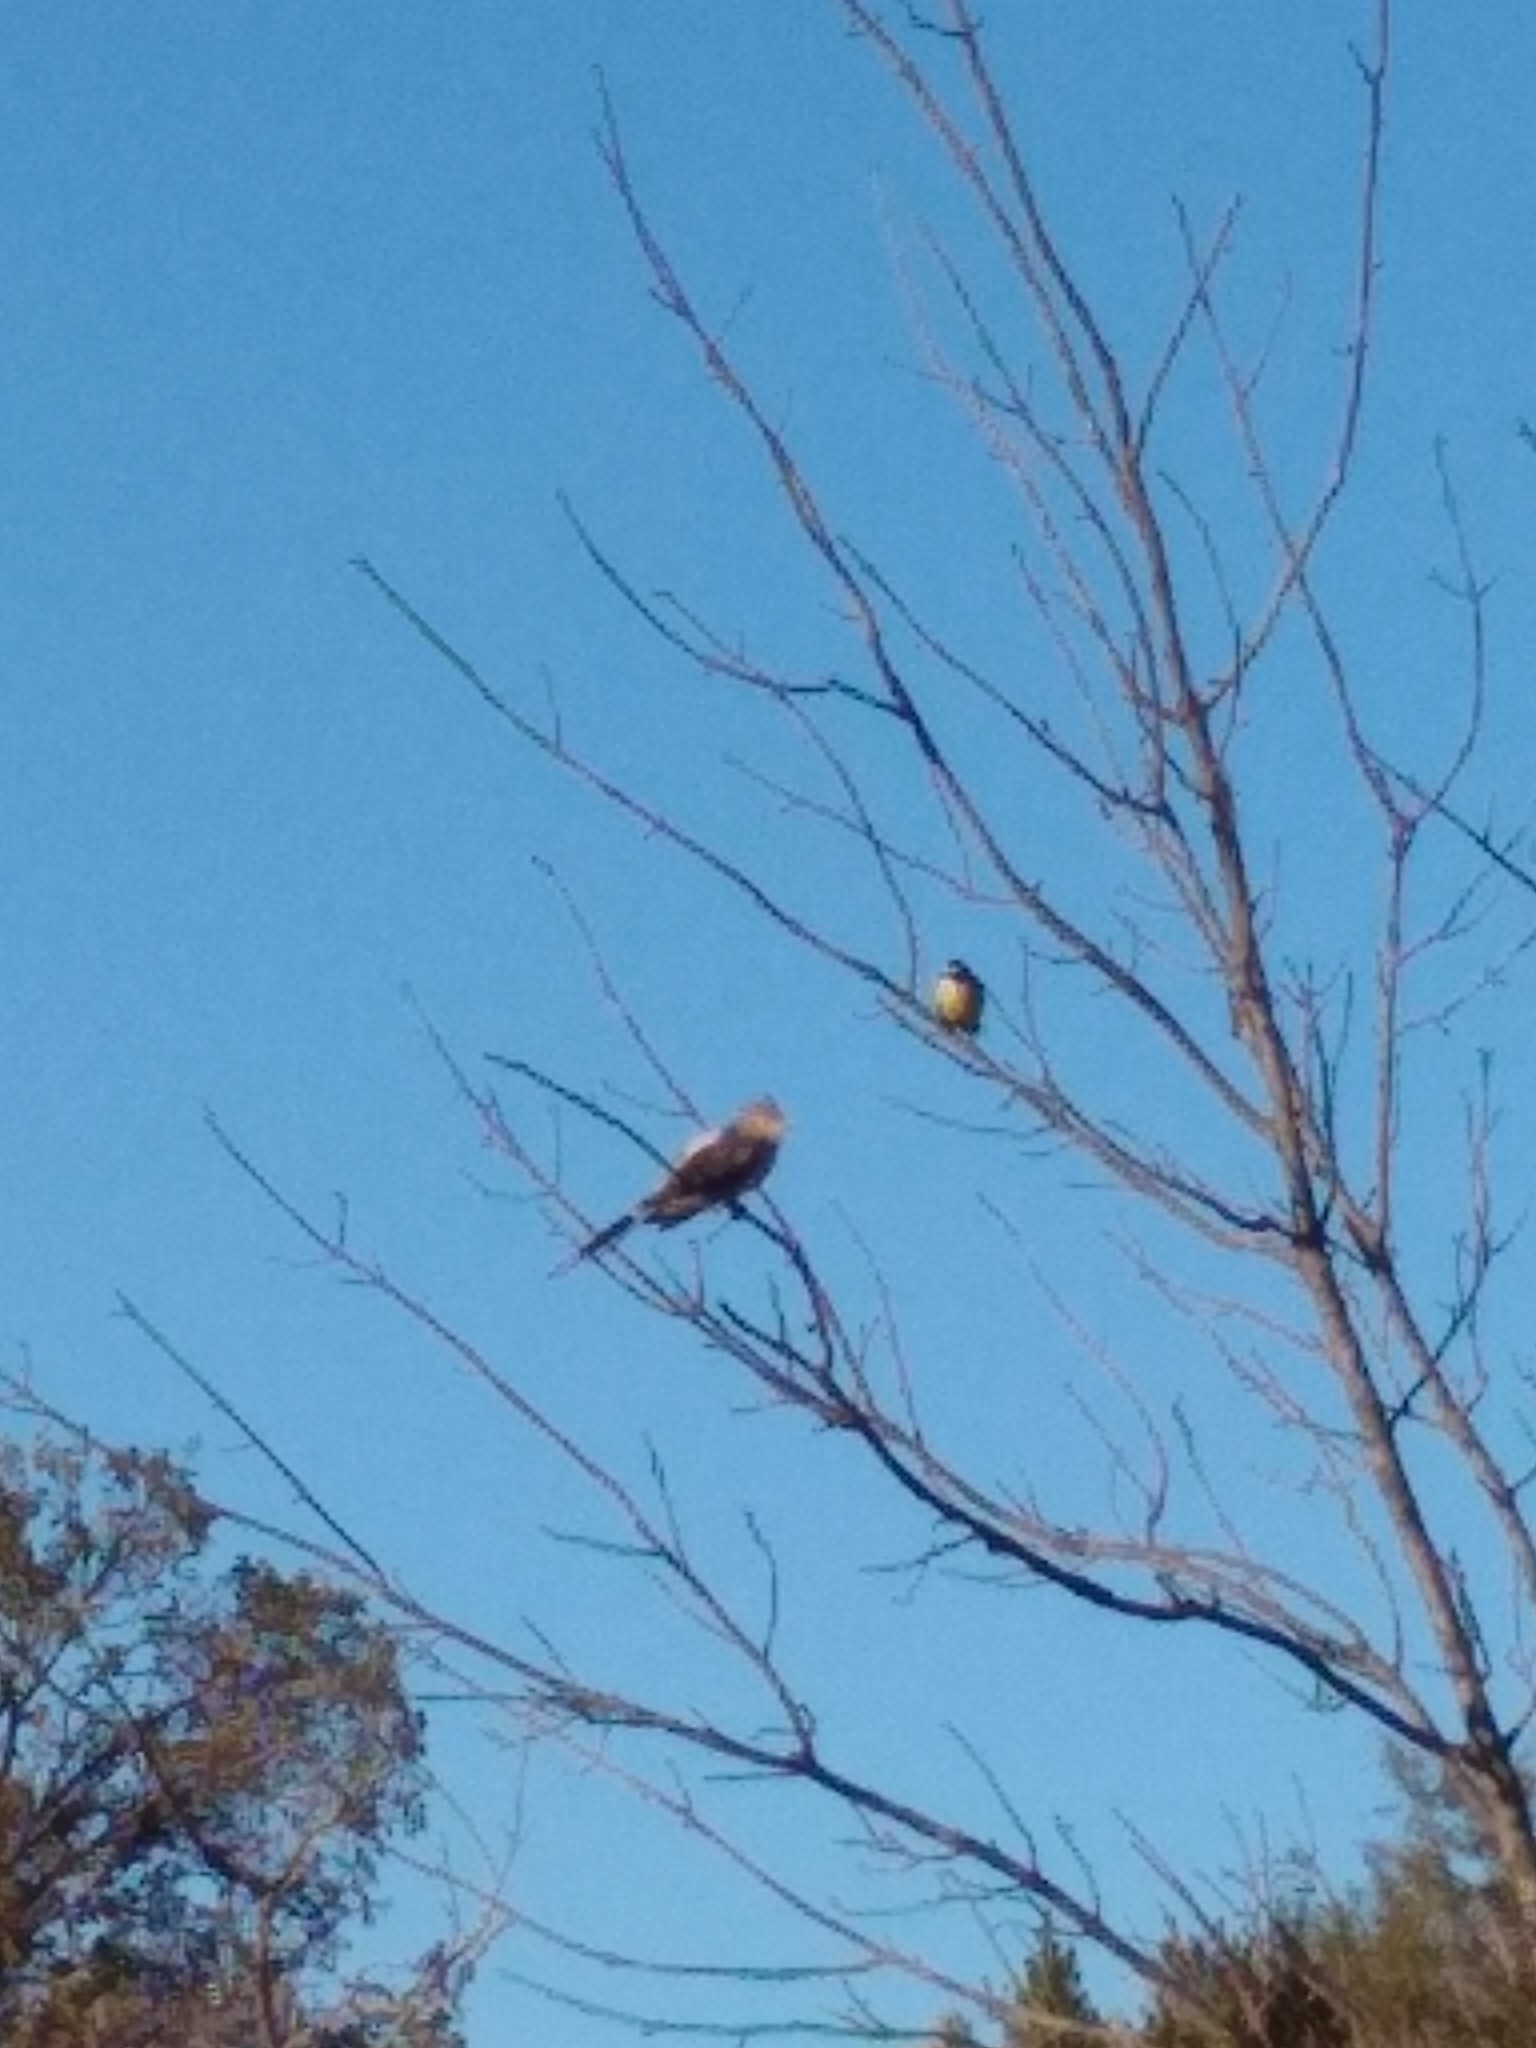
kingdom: Animalia
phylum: Chordata
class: Aves
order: Cuculiformes
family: Cuculidae
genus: Guira
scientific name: Guira guira
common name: Guira cuckoo
